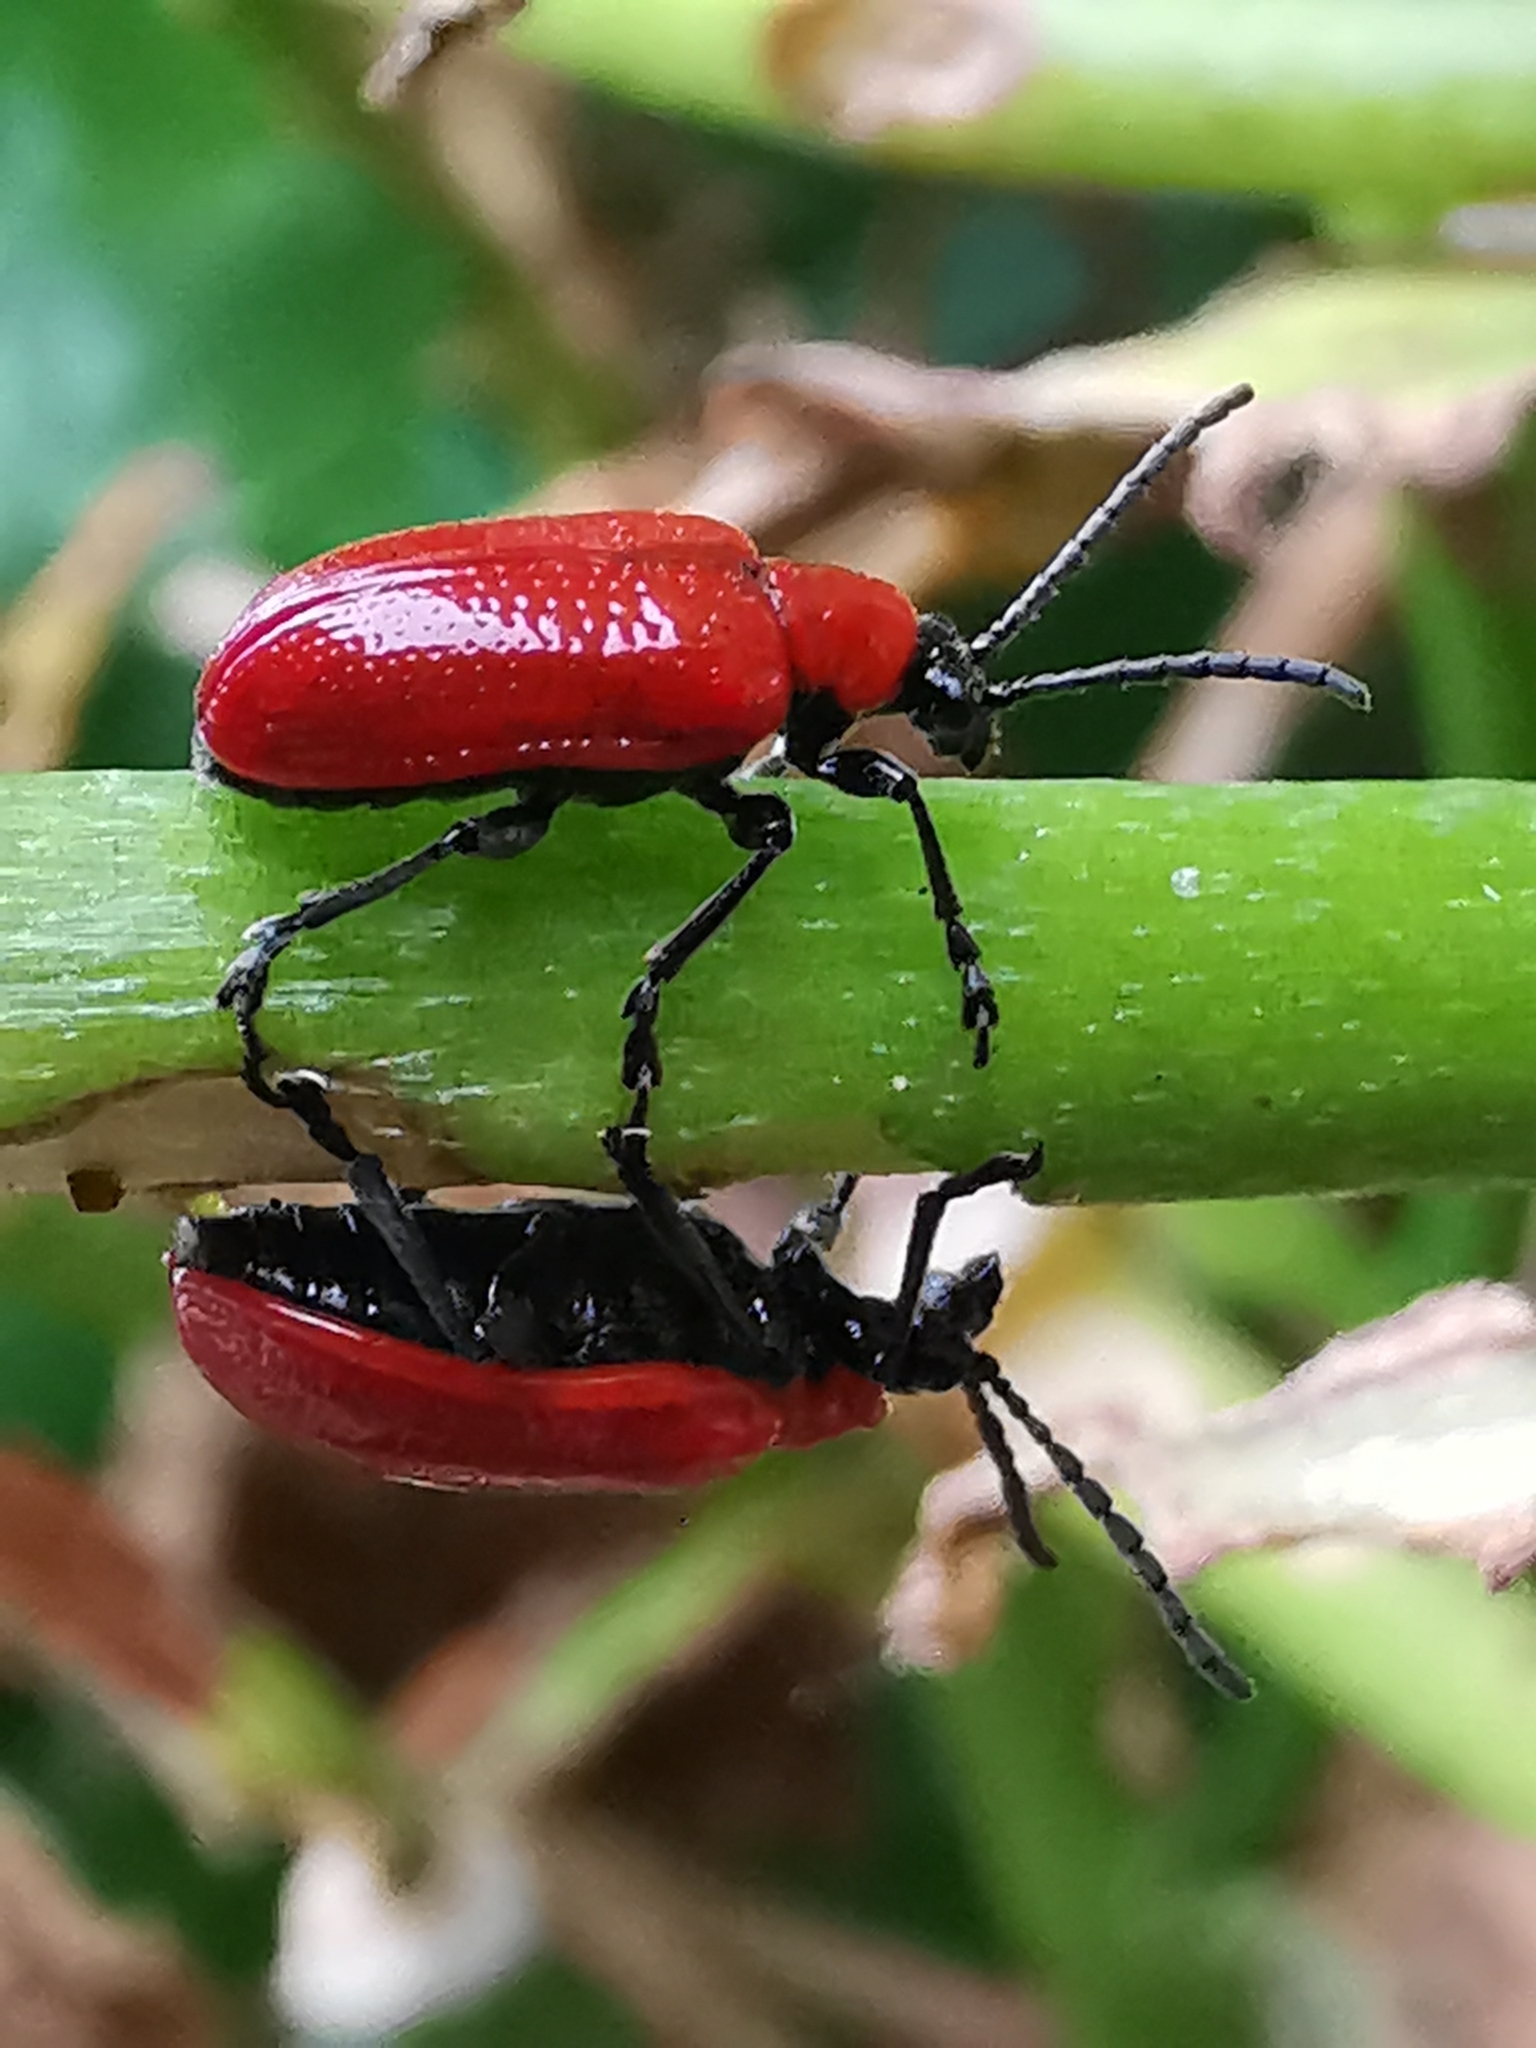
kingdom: Animalia
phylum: Arthropoda
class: Insecta
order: Coleoptera
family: Chrysomelidae
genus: Lilioceris
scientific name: Lilioceris lilii
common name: Lily beetle
